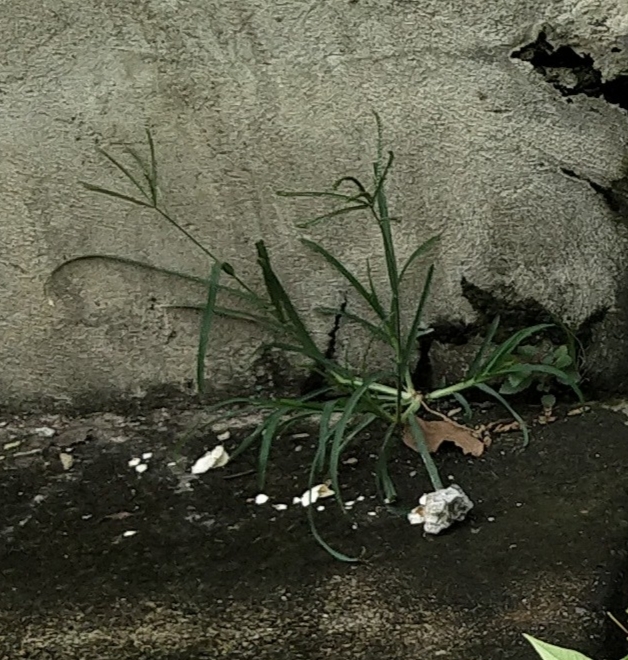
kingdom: Plantae
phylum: Tracheophyta
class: Liliopsida
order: Poales
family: Poaceae
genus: Eleusine
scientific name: Eleusine indica
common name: Yard-grass
